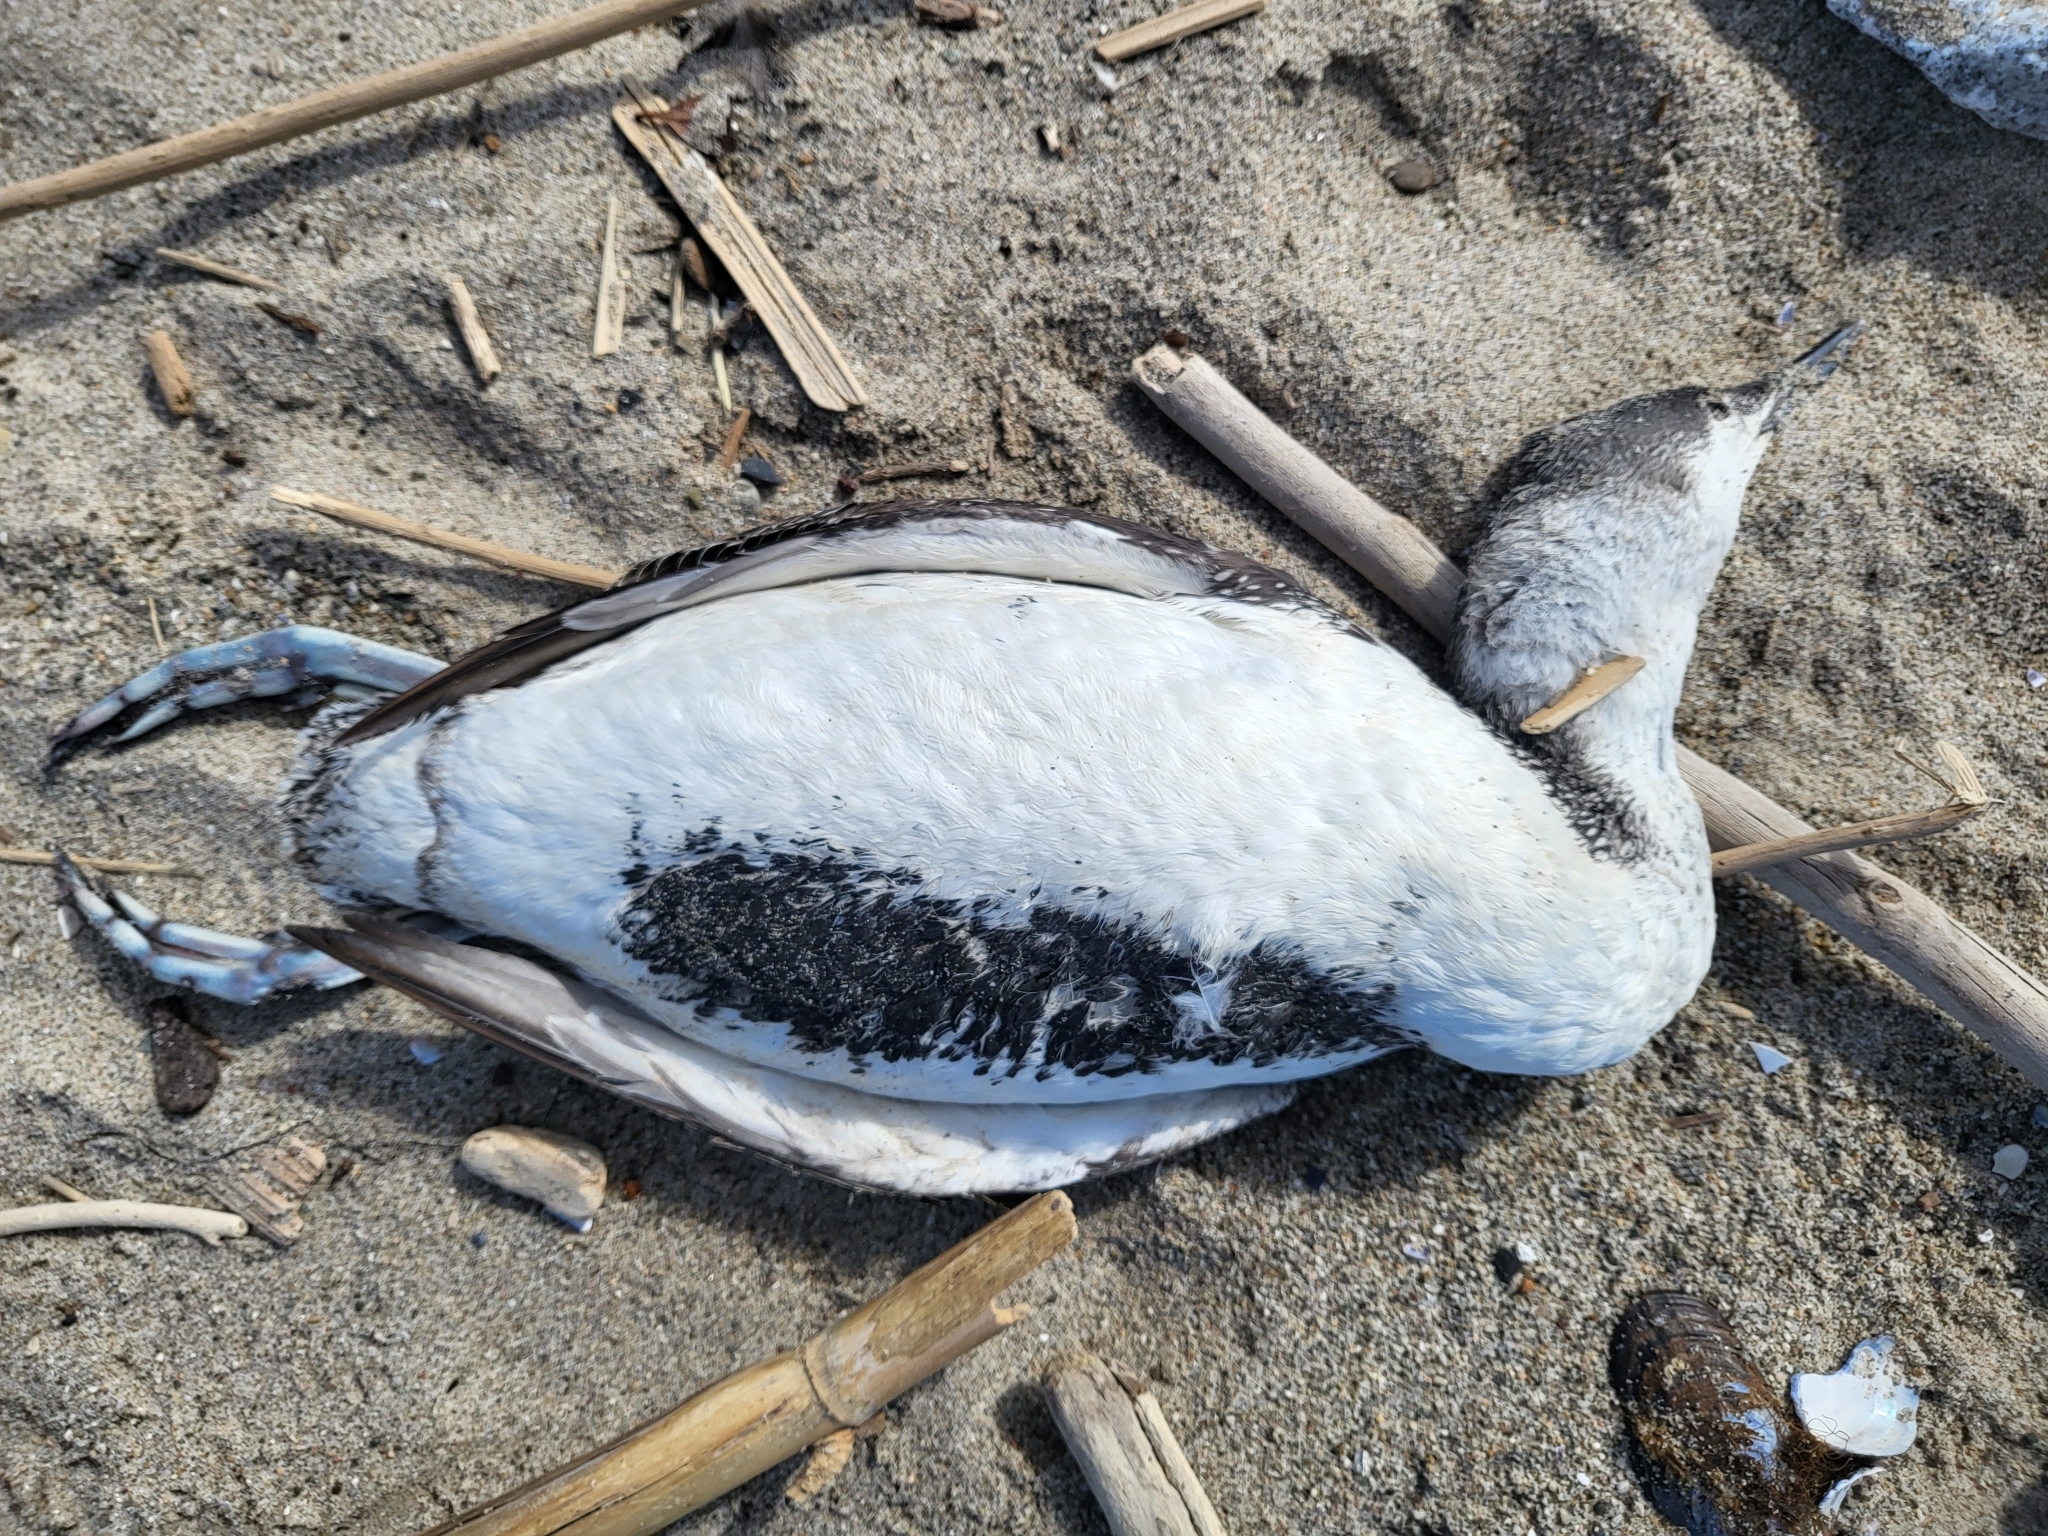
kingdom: Animalia
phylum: Chordata
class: Aves
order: Gaviiformes
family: Gaviidae
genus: Gavia
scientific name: Gavia stellata
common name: Red-throated loon
